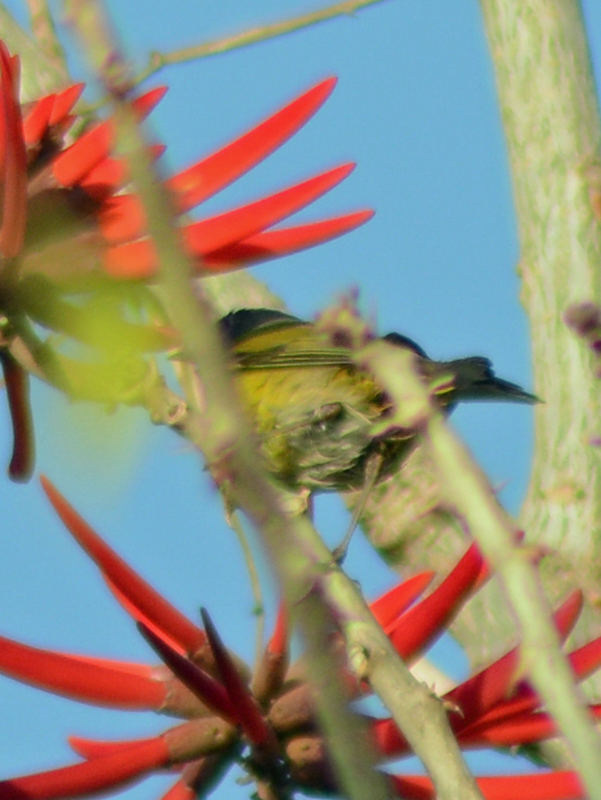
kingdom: Animalia
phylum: Chordata
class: Aves
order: Passeriformes
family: Parulidae
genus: Leiothlypis
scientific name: Leiothlypis ruficapilla
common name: Nashville warbler
